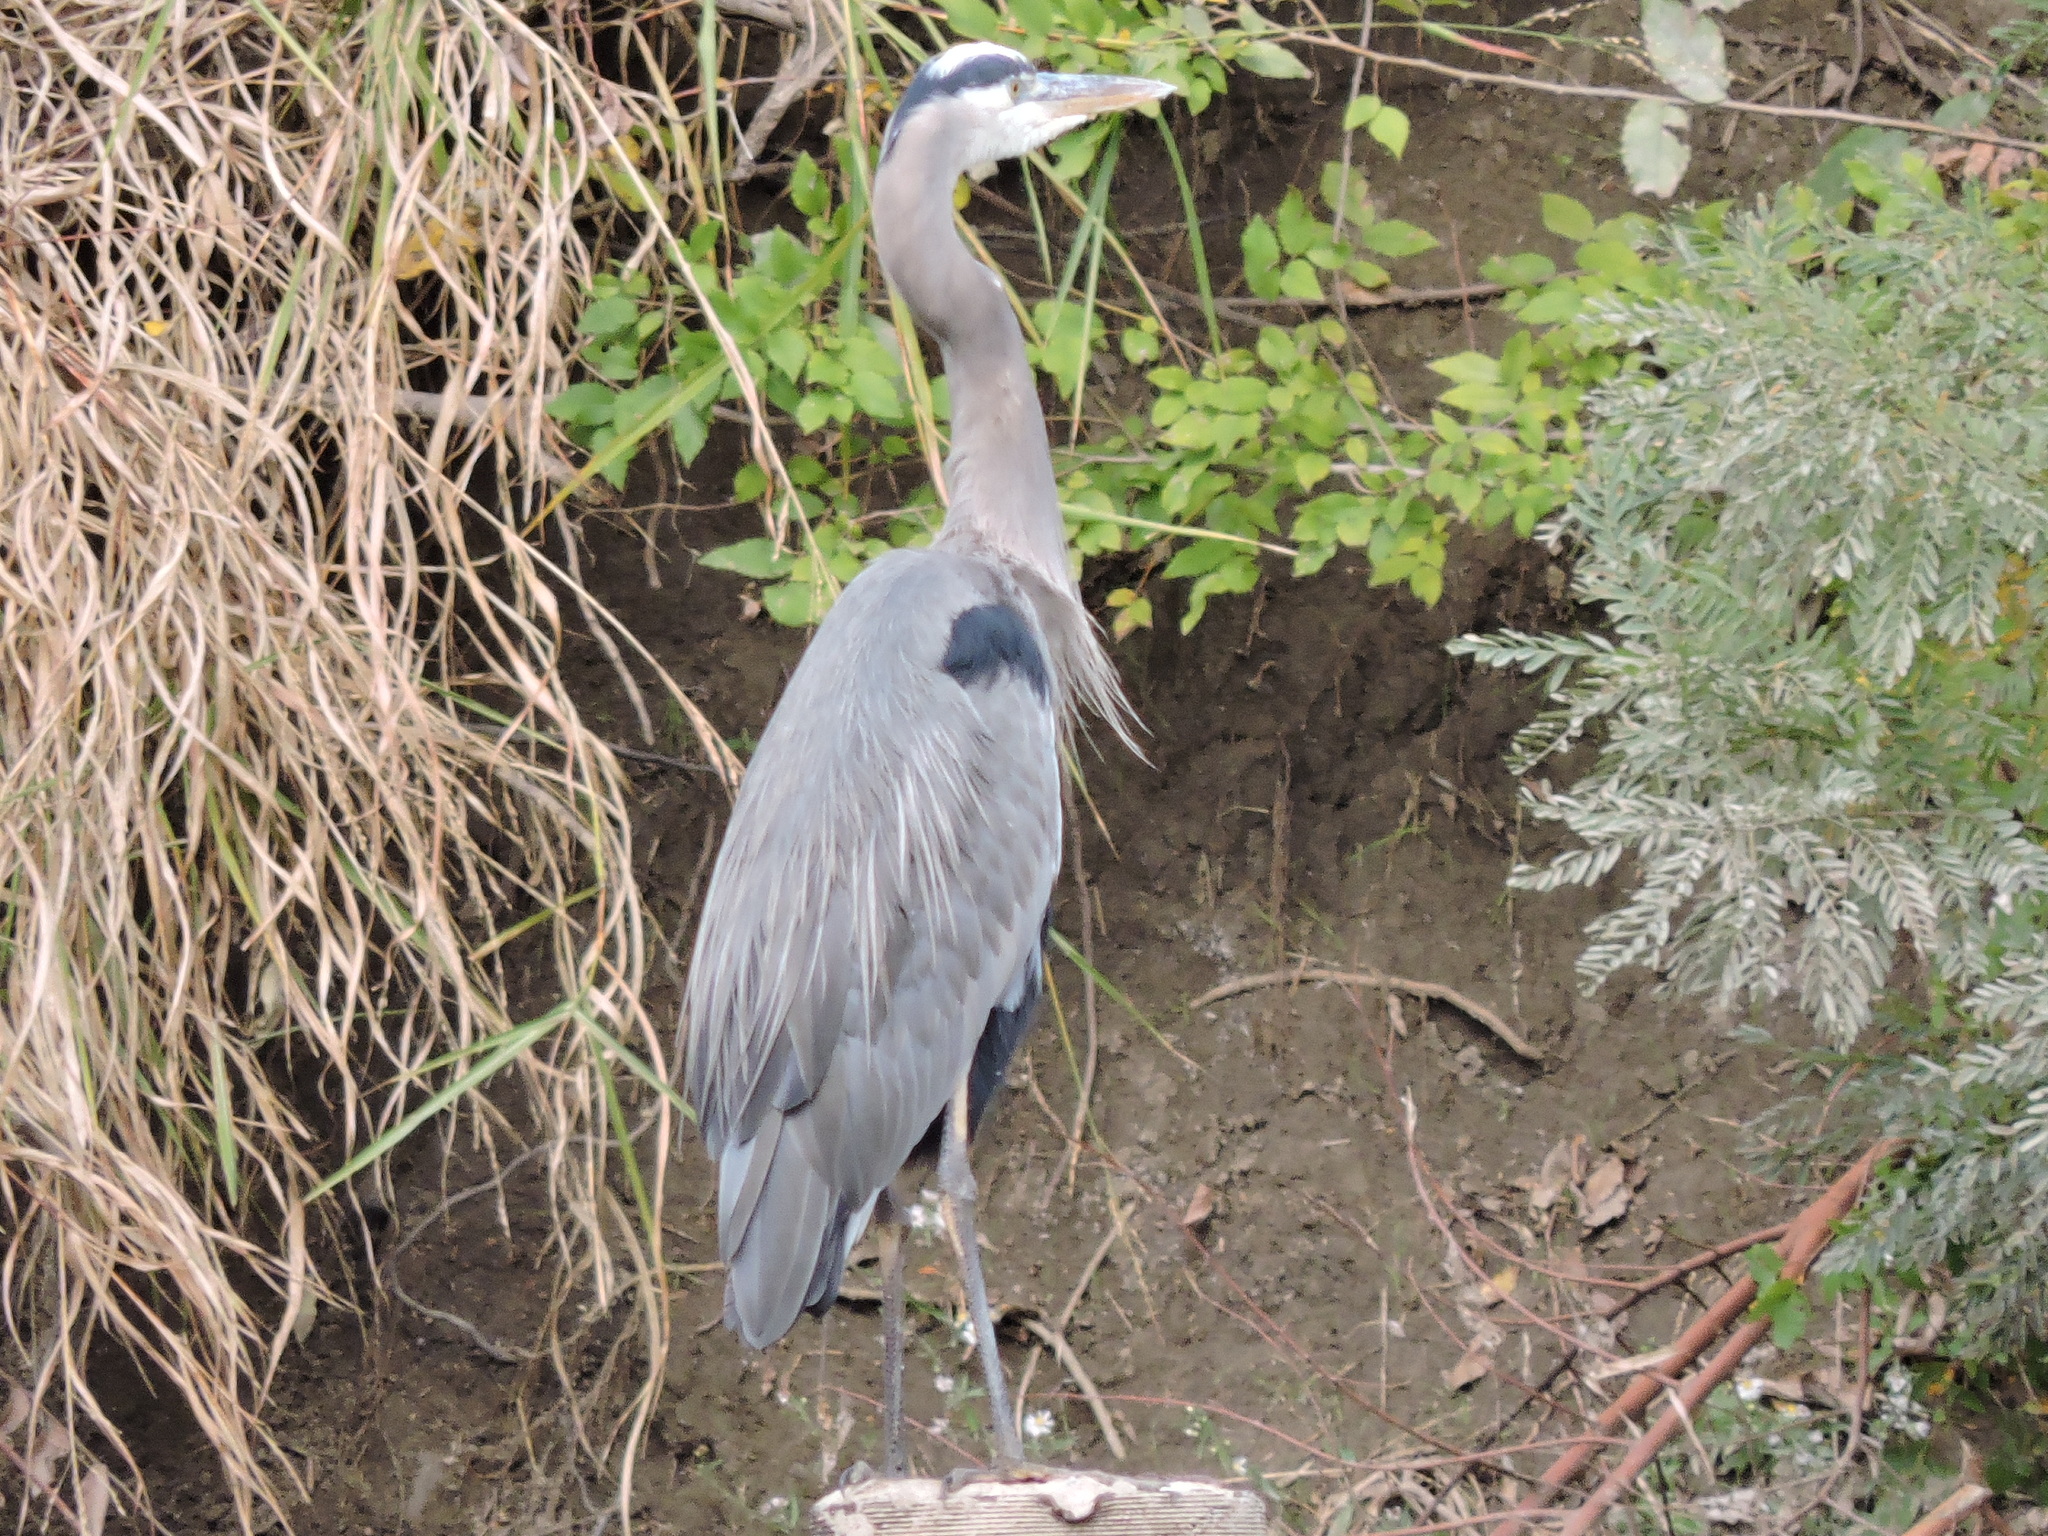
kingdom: Animalia
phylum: Chordata
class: Aves
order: Pelecaniformes
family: Ardeidae
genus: Ardea
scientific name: Ardea herodias
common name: Great blue heron
